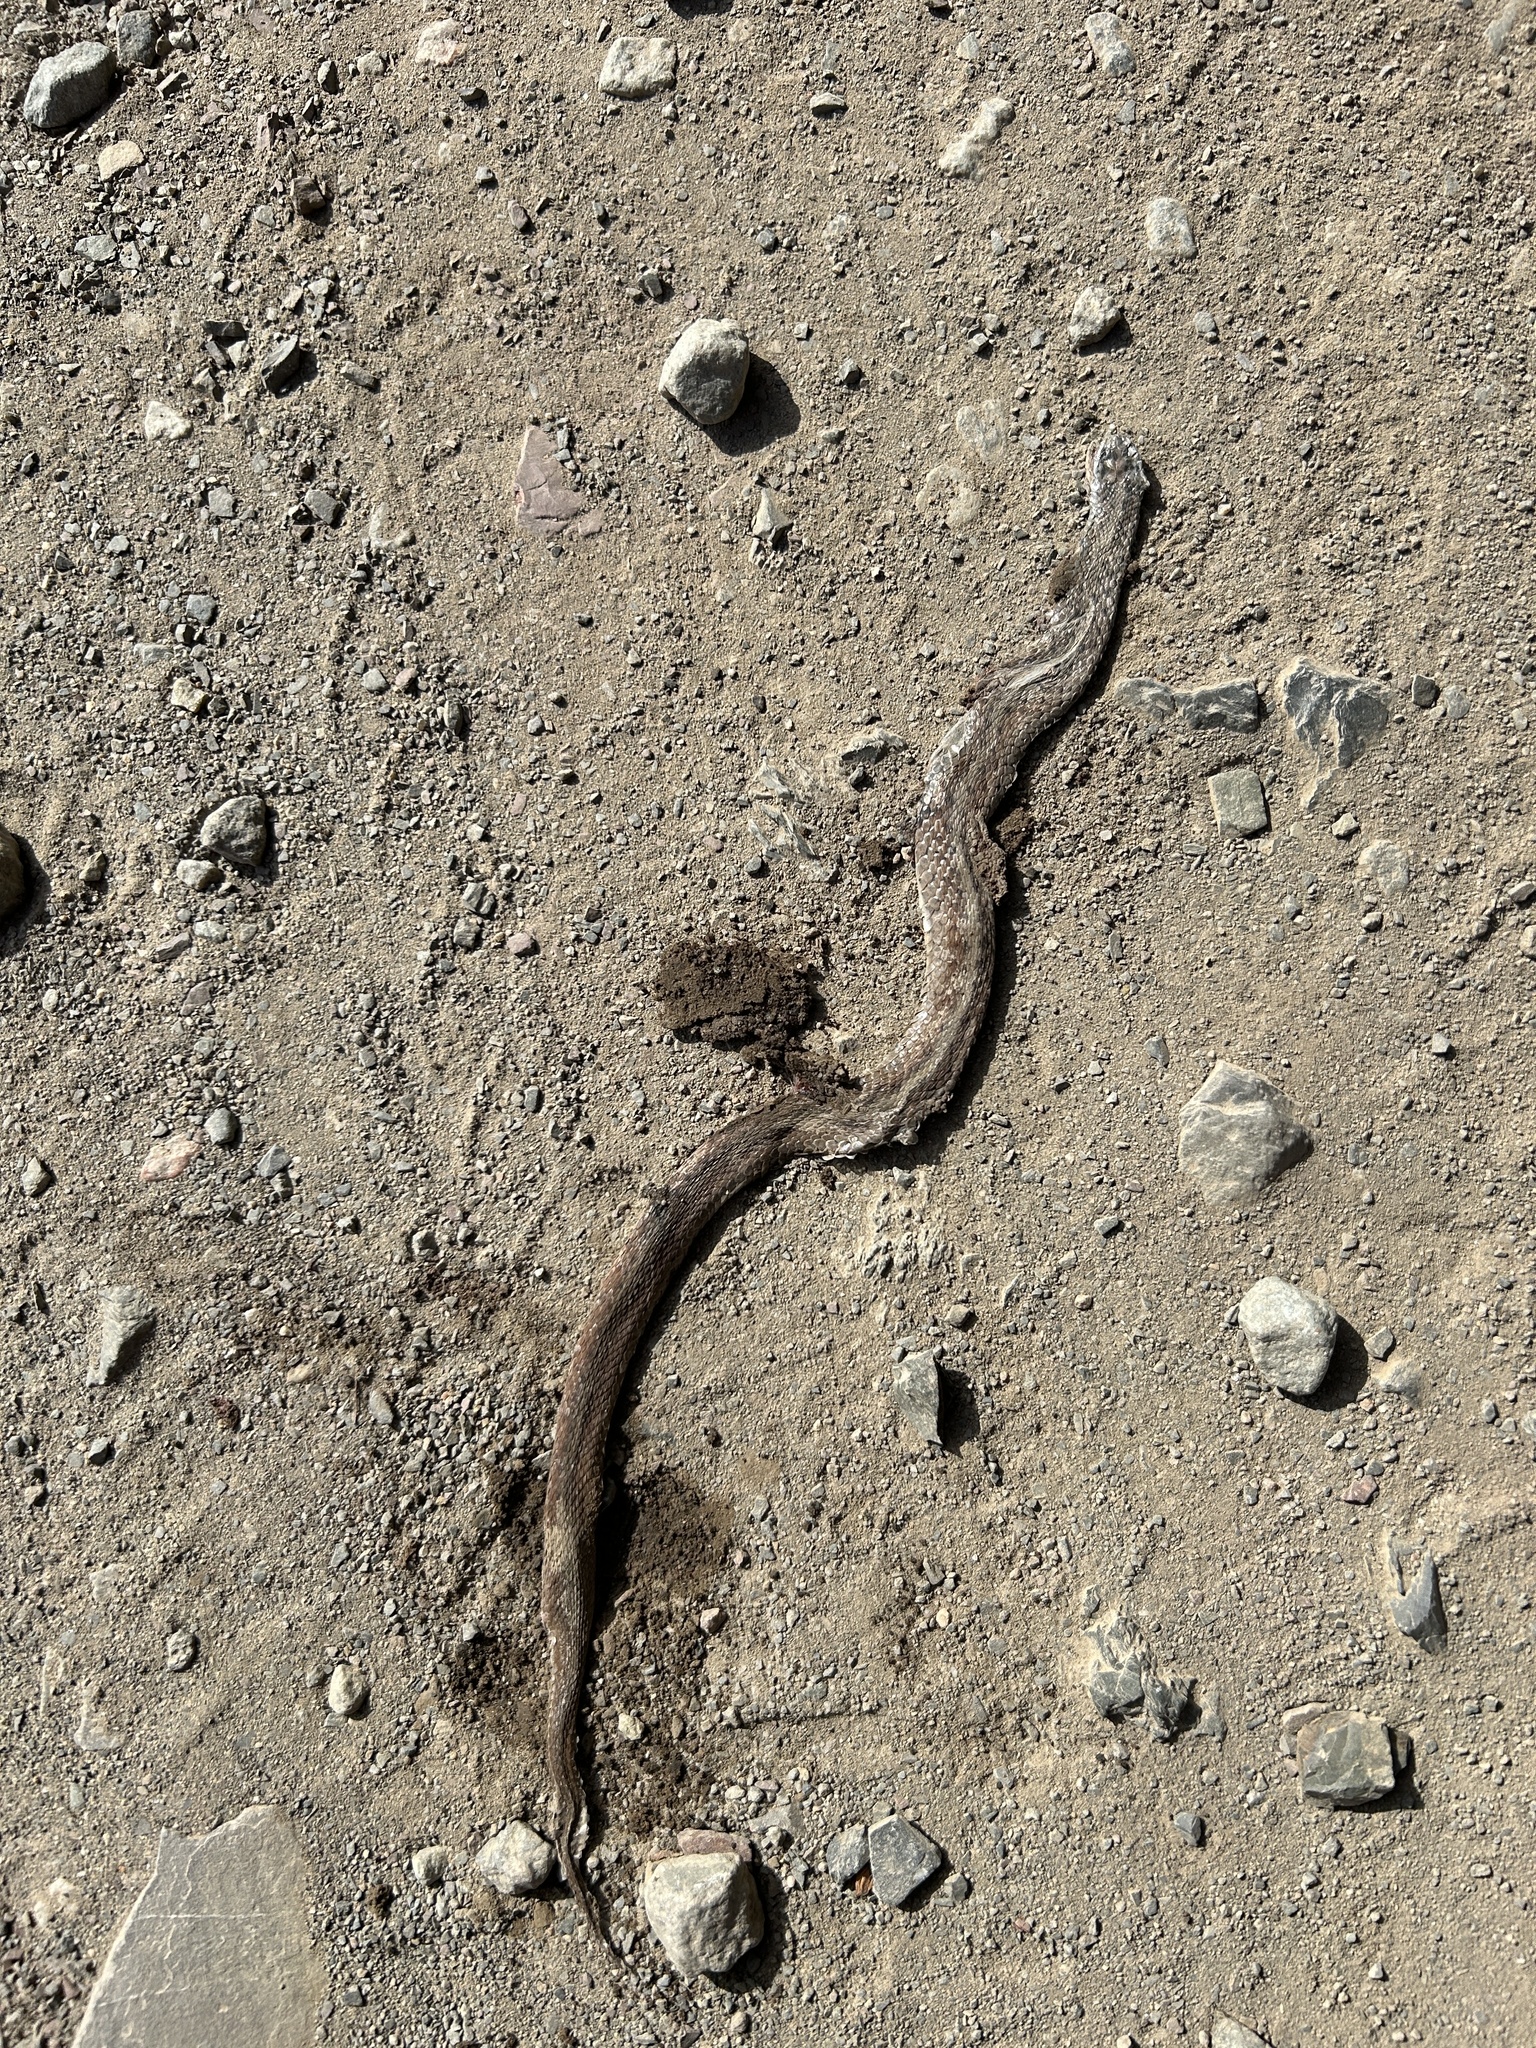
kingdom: Animalia
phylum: Chordata
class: Squamata
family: Colubridae
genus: Storeria
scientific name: Storeria dekayi
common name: (dekay’s) brown snake
